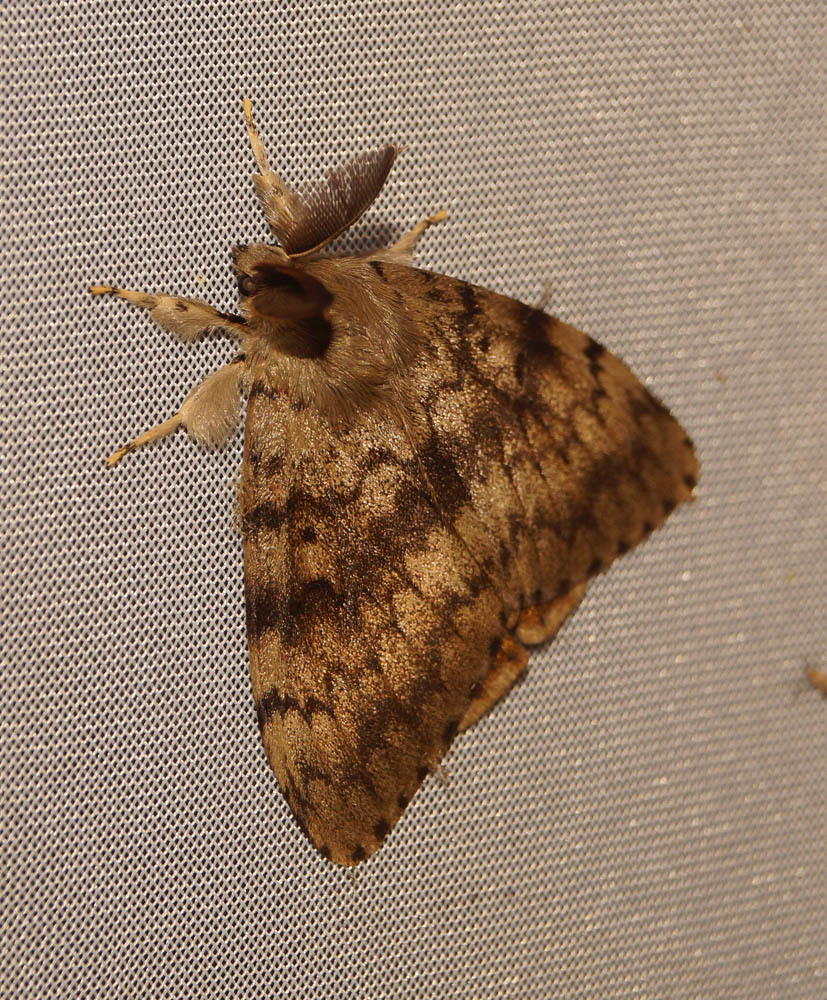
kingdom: Animalia
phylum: Arthropoda
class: Insecta
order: Lepidoptera
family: Erebidae
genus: Lymantria
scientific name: Lymantria dispar
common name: Gypsy moth
